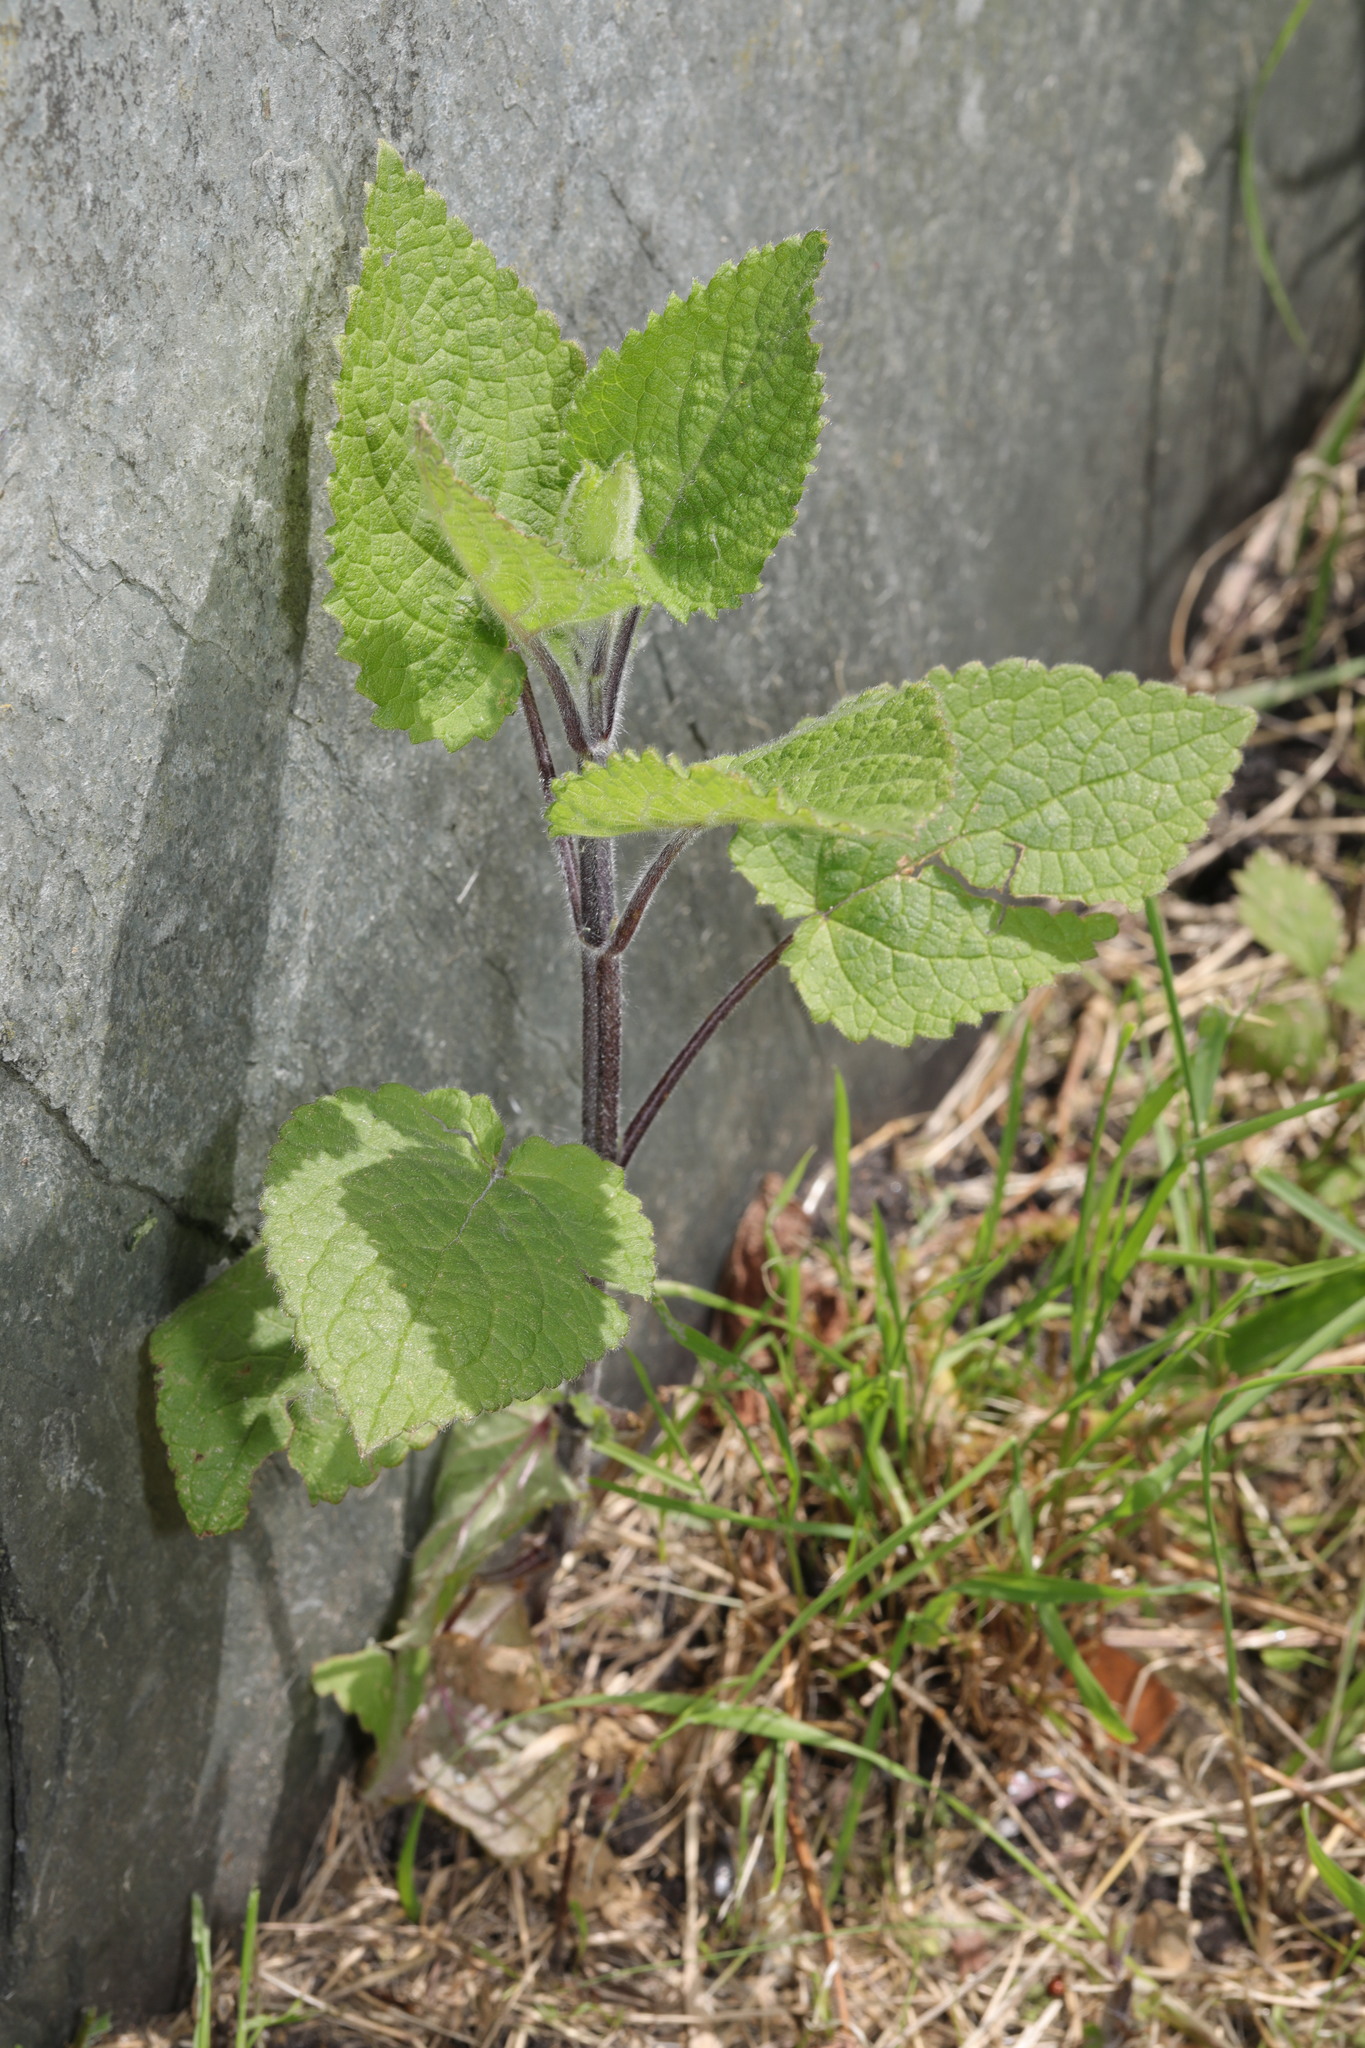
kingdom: Plantae
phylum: Tracheophyta
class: Magnoliopsida
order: Lamiales
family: Lamiaceae
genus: Stachys
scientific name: Stachys sylvatica
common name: Hedge woundwort
